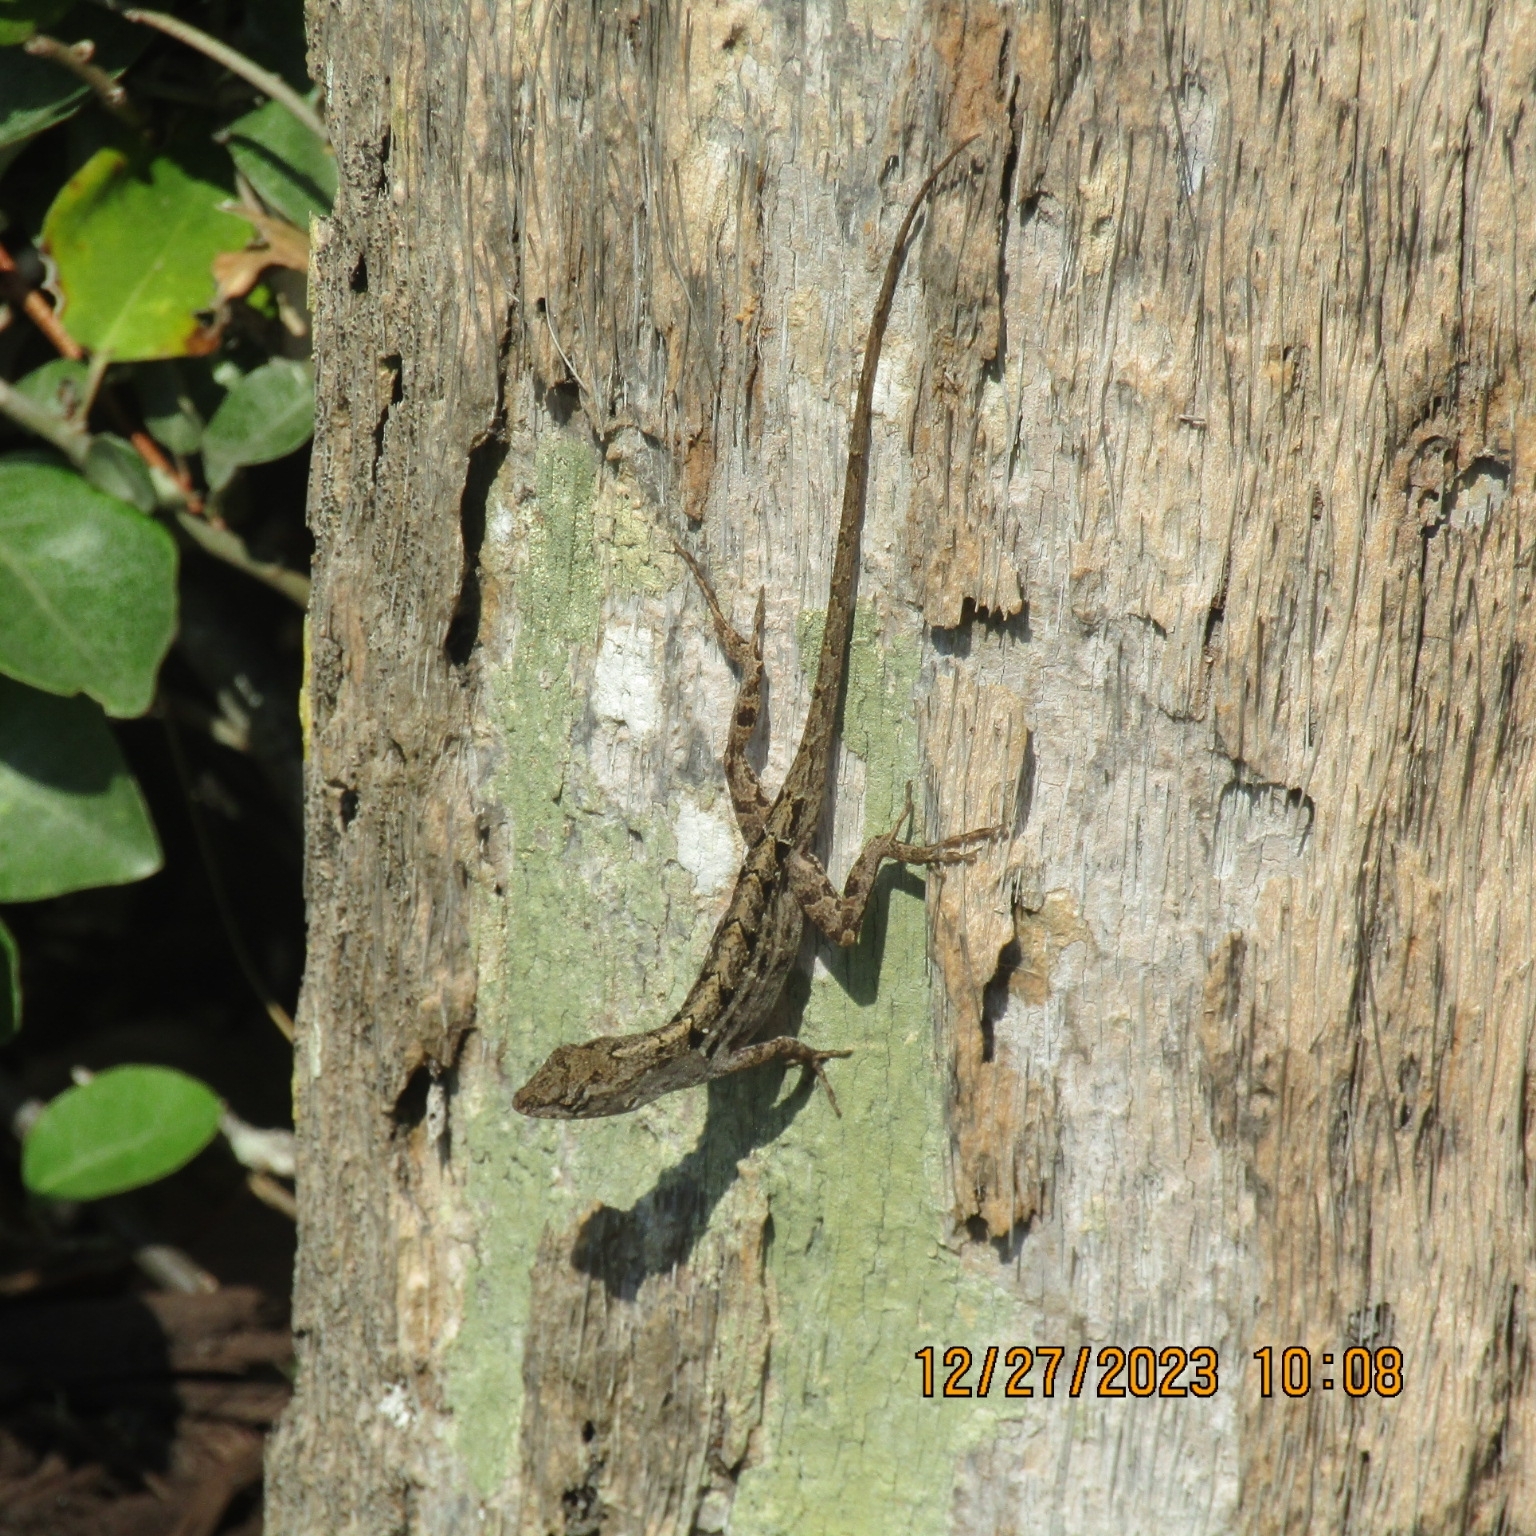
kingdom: Animalia
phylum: Chordata
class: Squamata
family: Dactyloidae
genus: Anolis
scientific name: Anolis sagrei
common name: Brown anole
